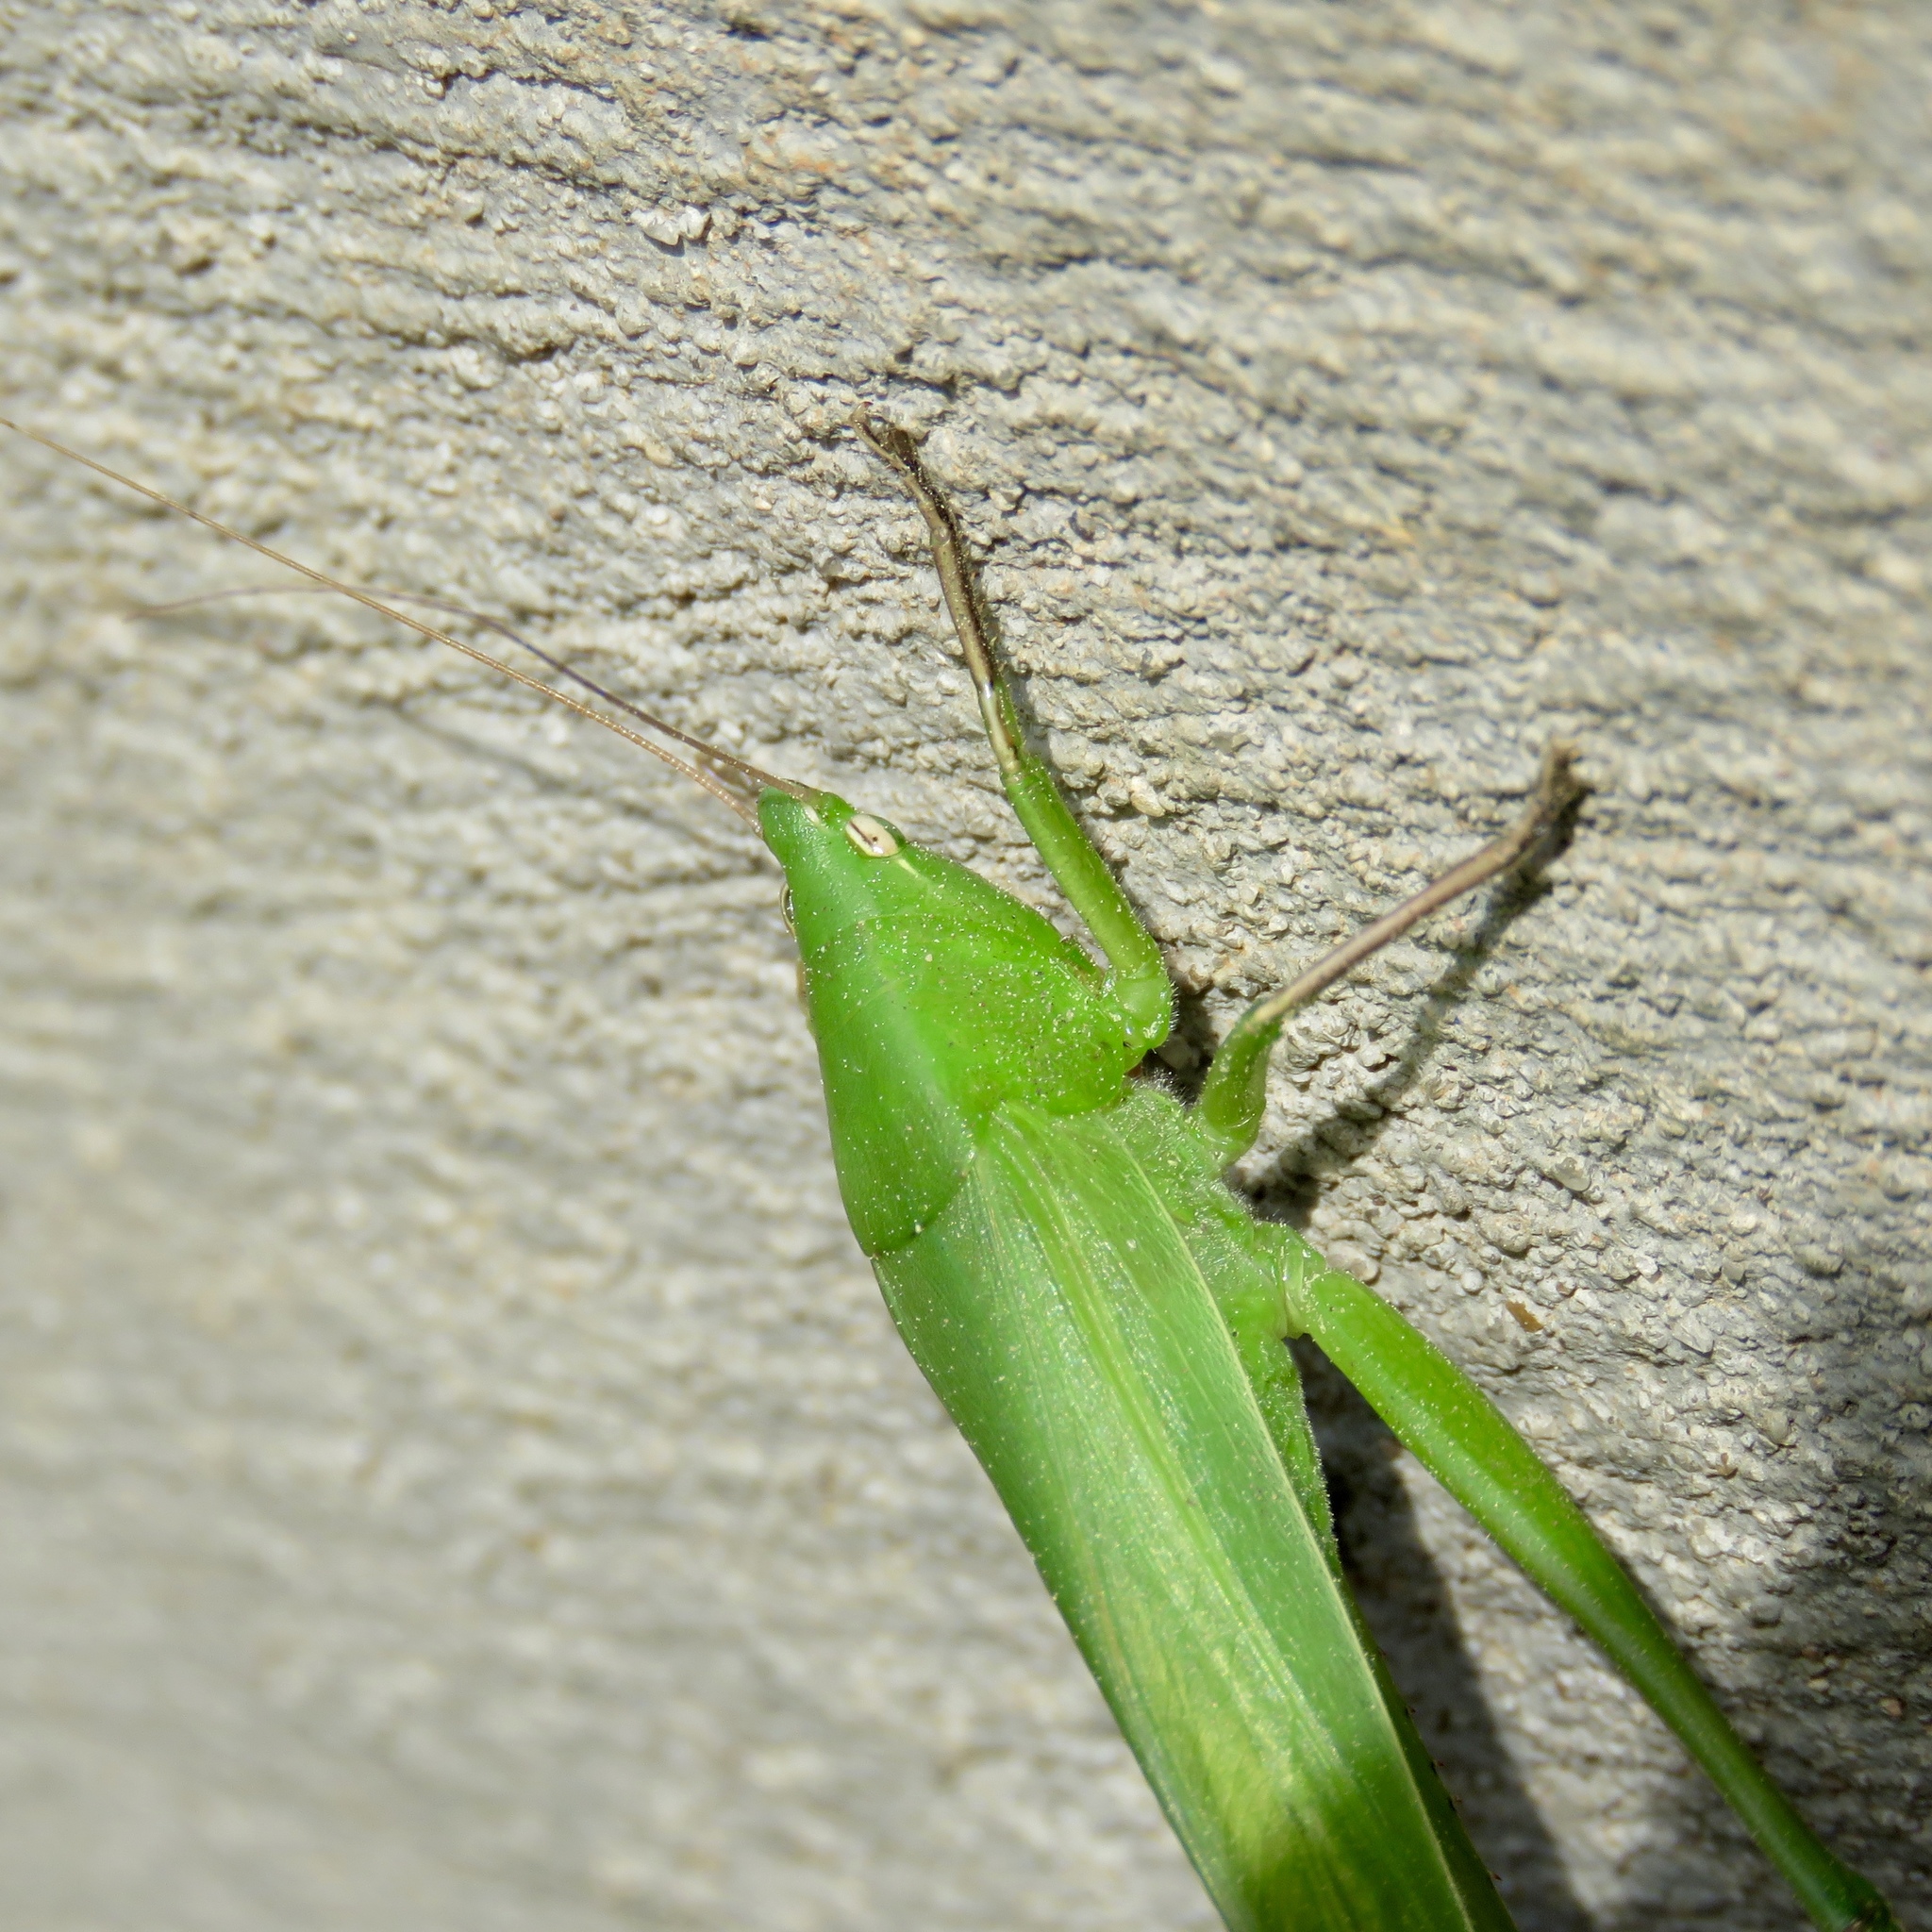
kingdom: Animalia
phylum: Arthropoda
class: Insecta
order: Orthoptera
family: Tettigoniidae
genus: Neoconocephalus
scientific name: Neoconocephalus triops
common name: Broad-tipped conehead
